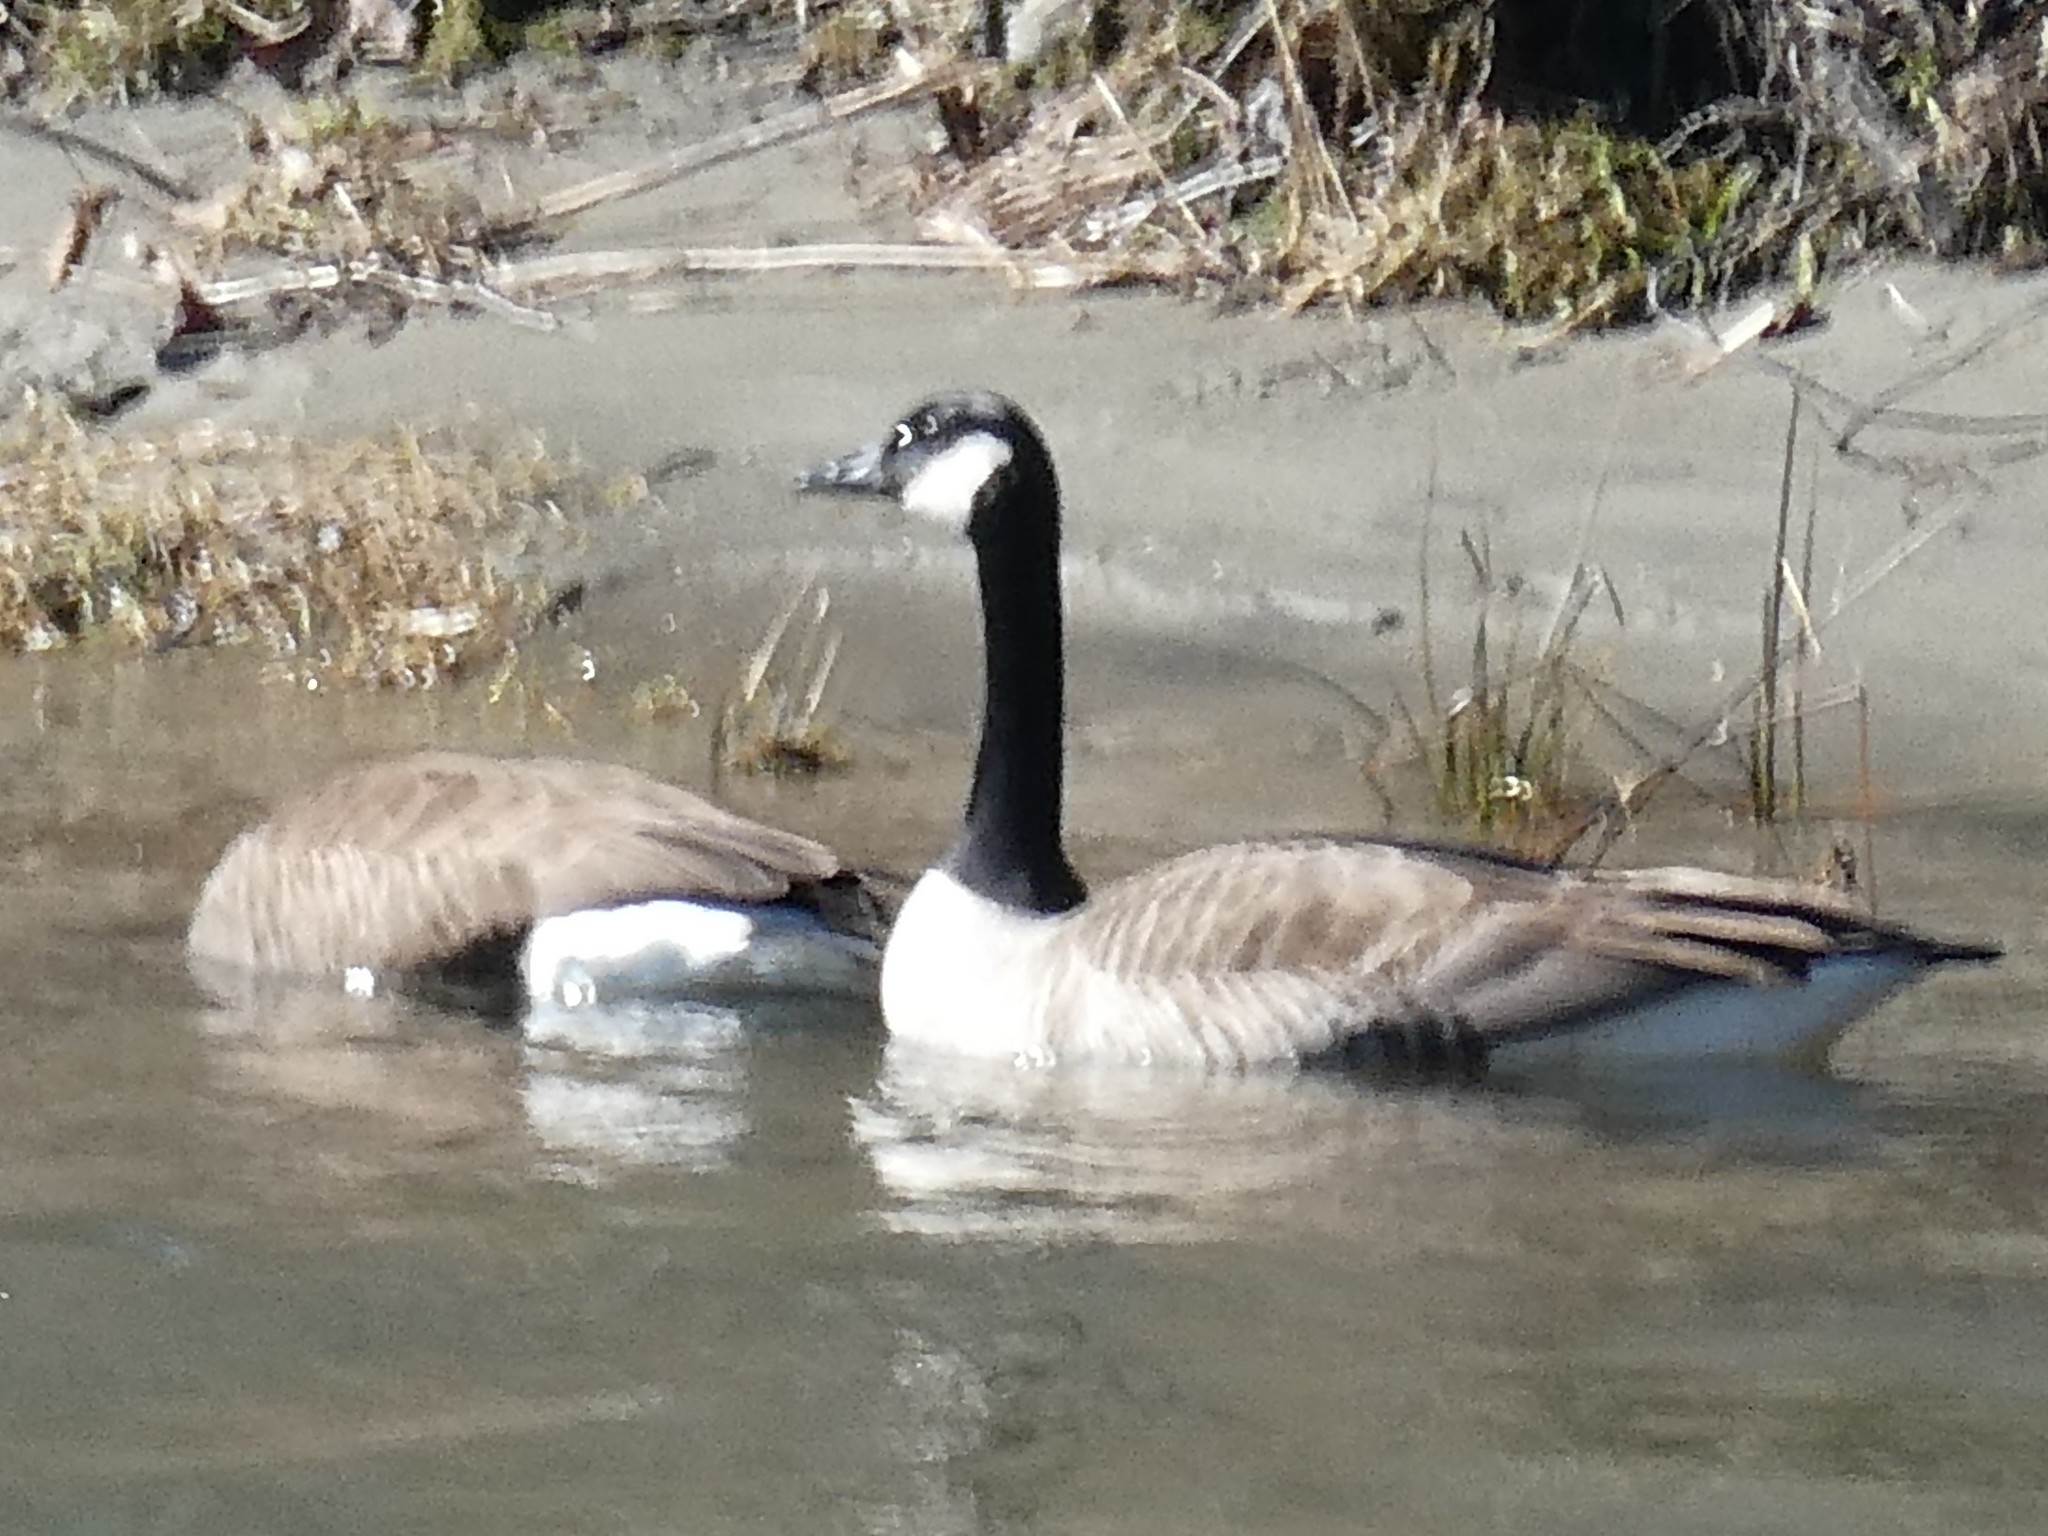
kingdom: Animalia
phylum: Chordata
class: Aves
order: Anseriformes
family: Anatidae
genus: Branta
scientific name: Branta canadensis
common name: Canada goose
